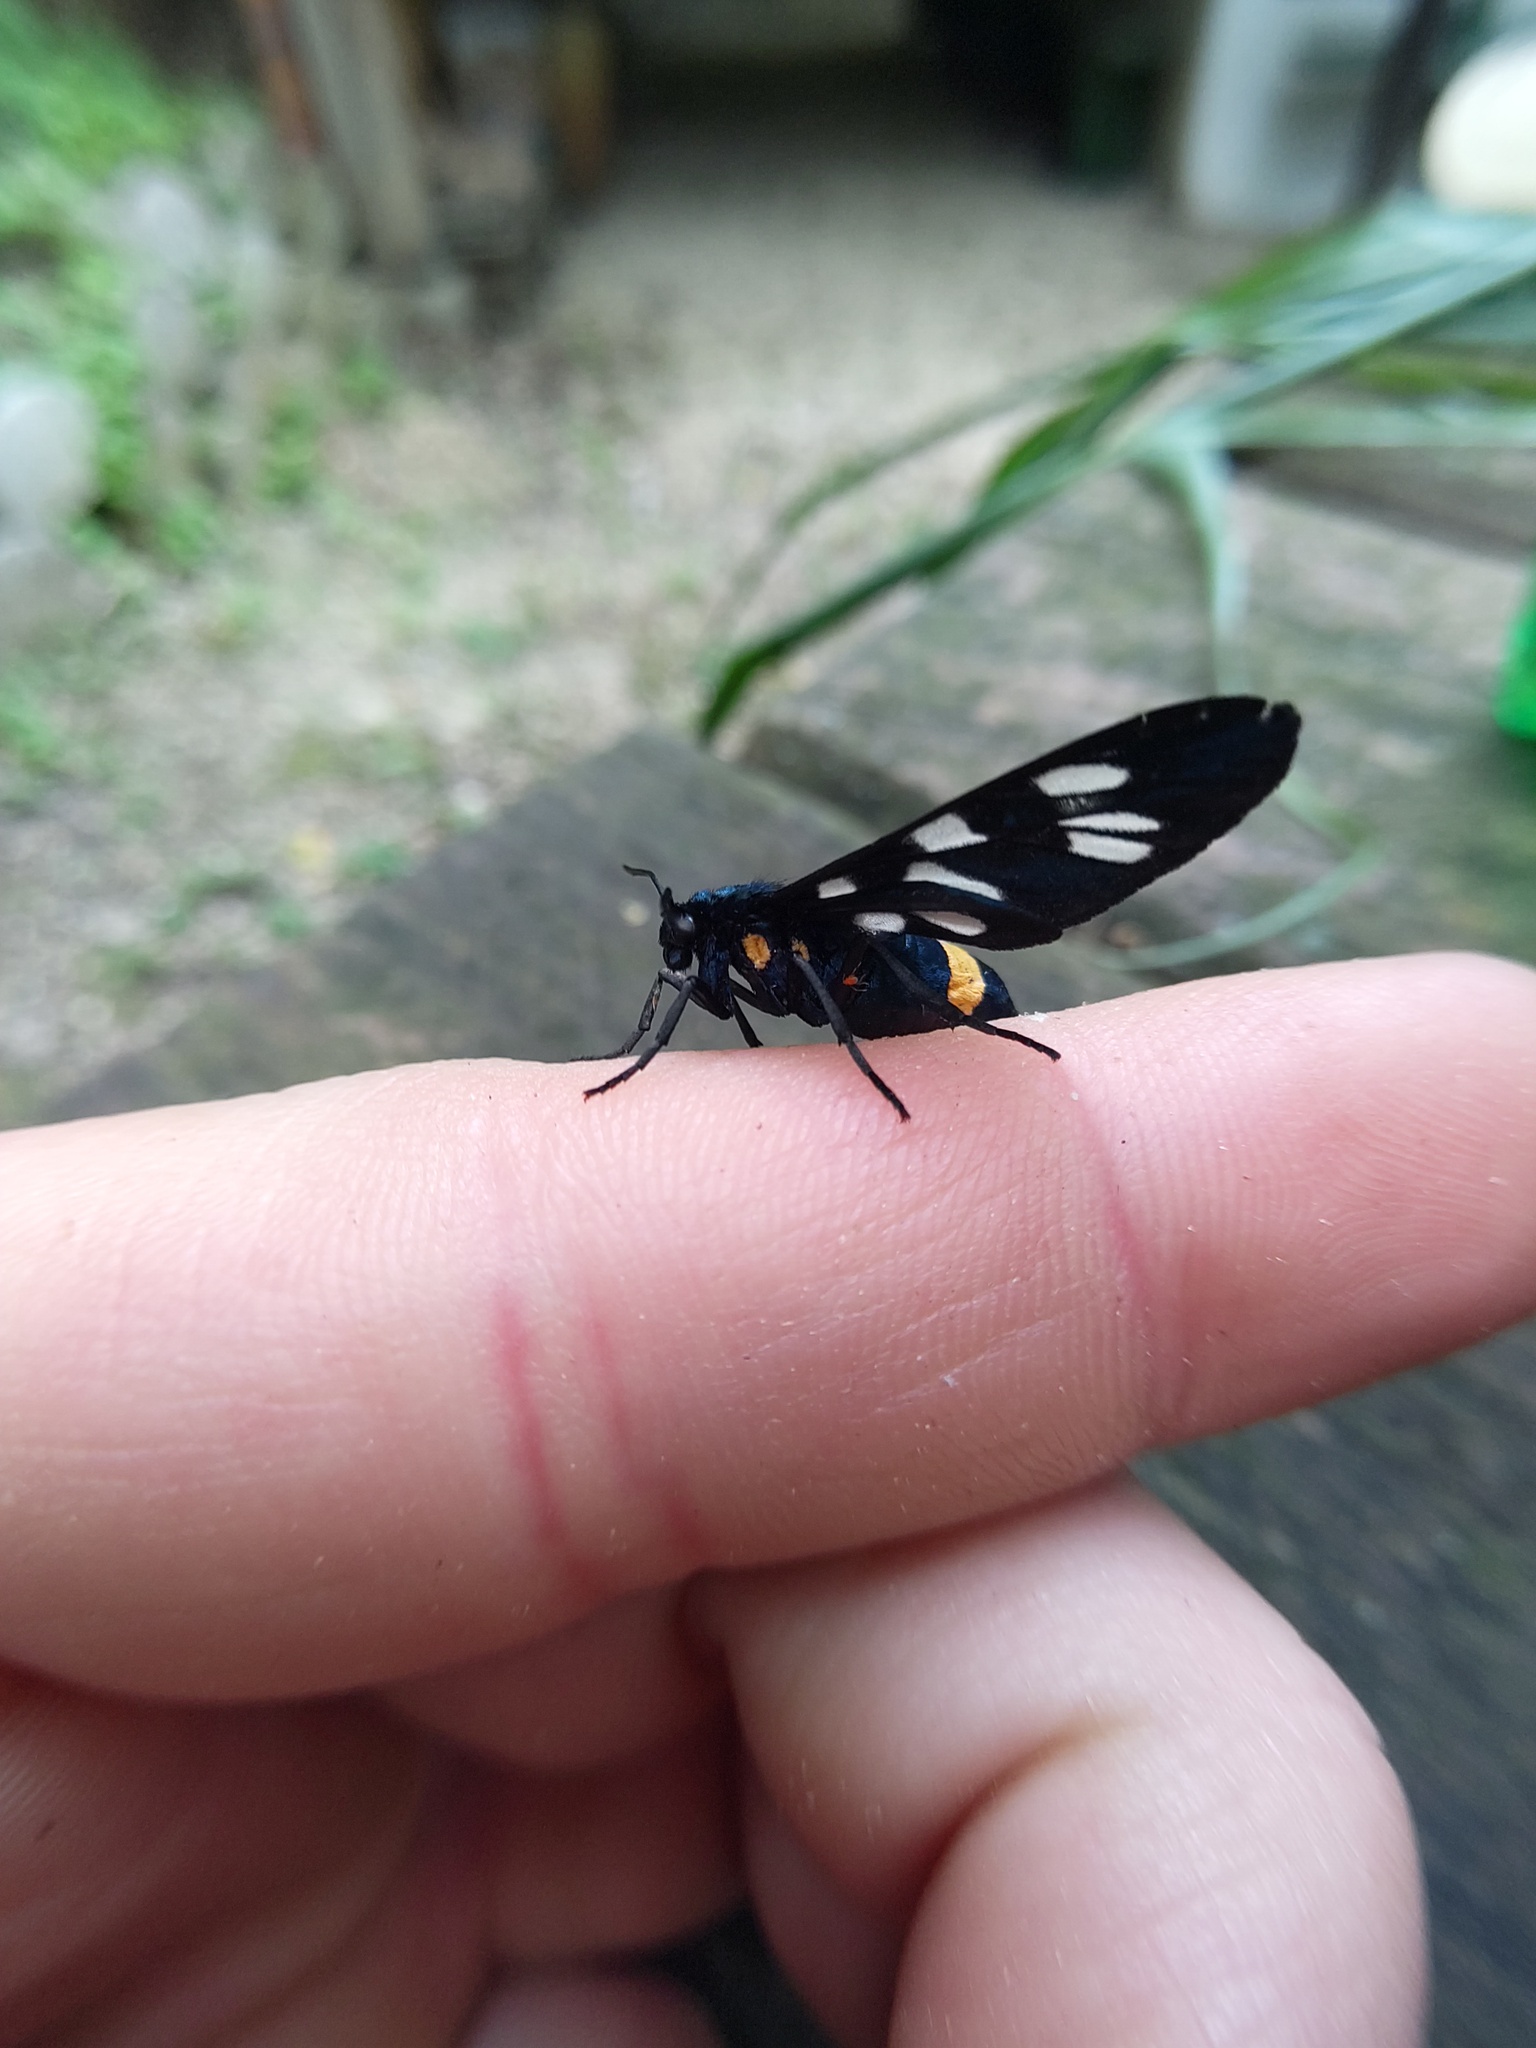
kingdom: Animalia
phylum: Arthropoda
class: Insecta
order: Lepidoptera
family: Erebidae
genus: Amata
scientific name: Amata phegea
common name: Nine-spotted
